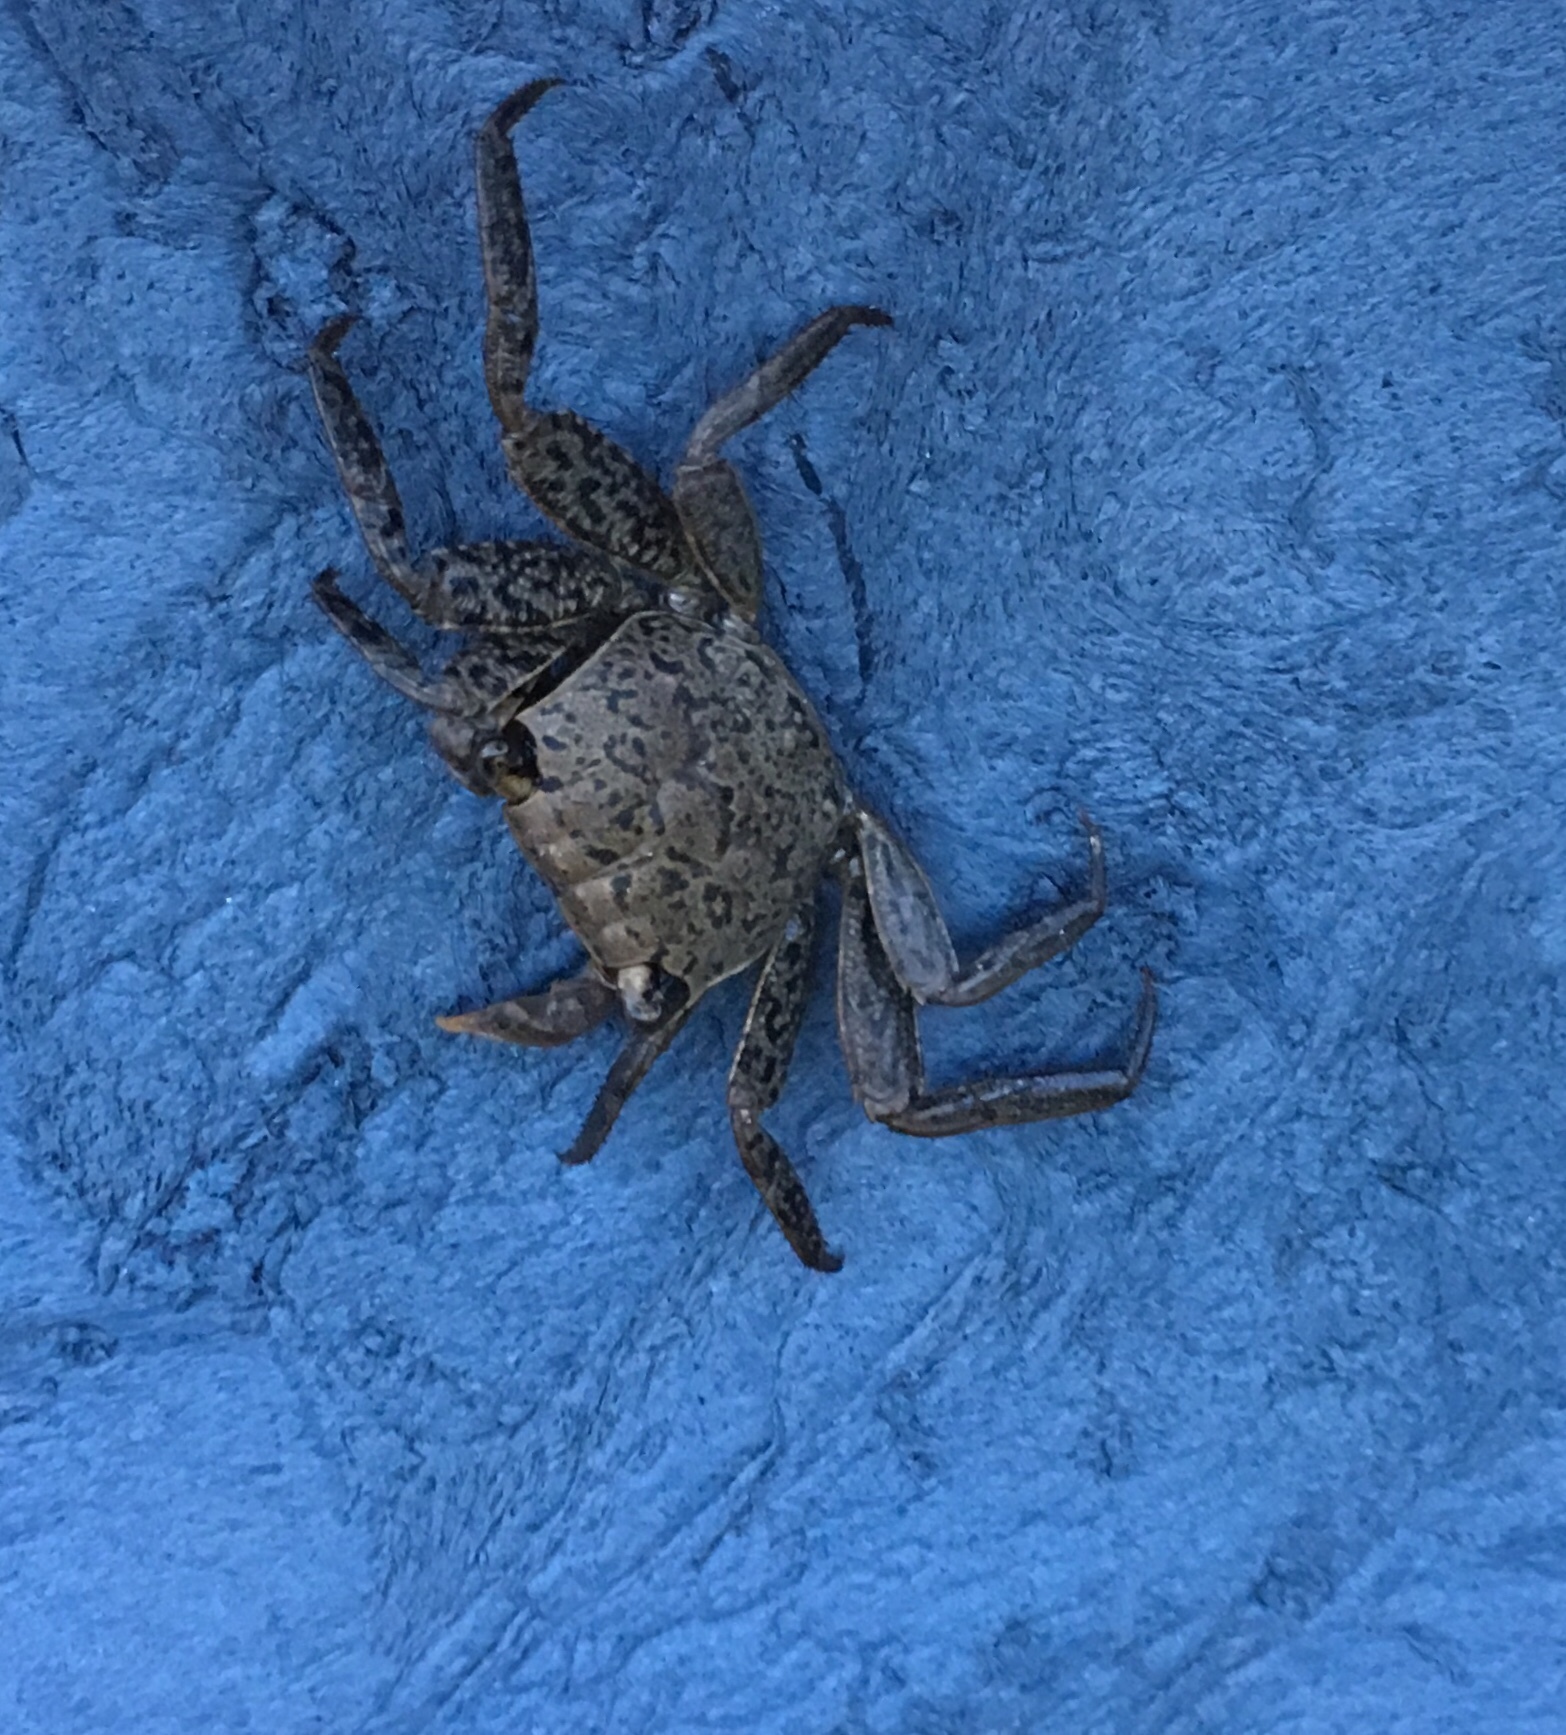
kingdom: Animalia
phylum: Arthropoda
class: Malacostraca
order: Decapoda
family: Sesarmidae
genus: Armases
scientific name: Armases cinereum
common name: Squareback marsh crab
